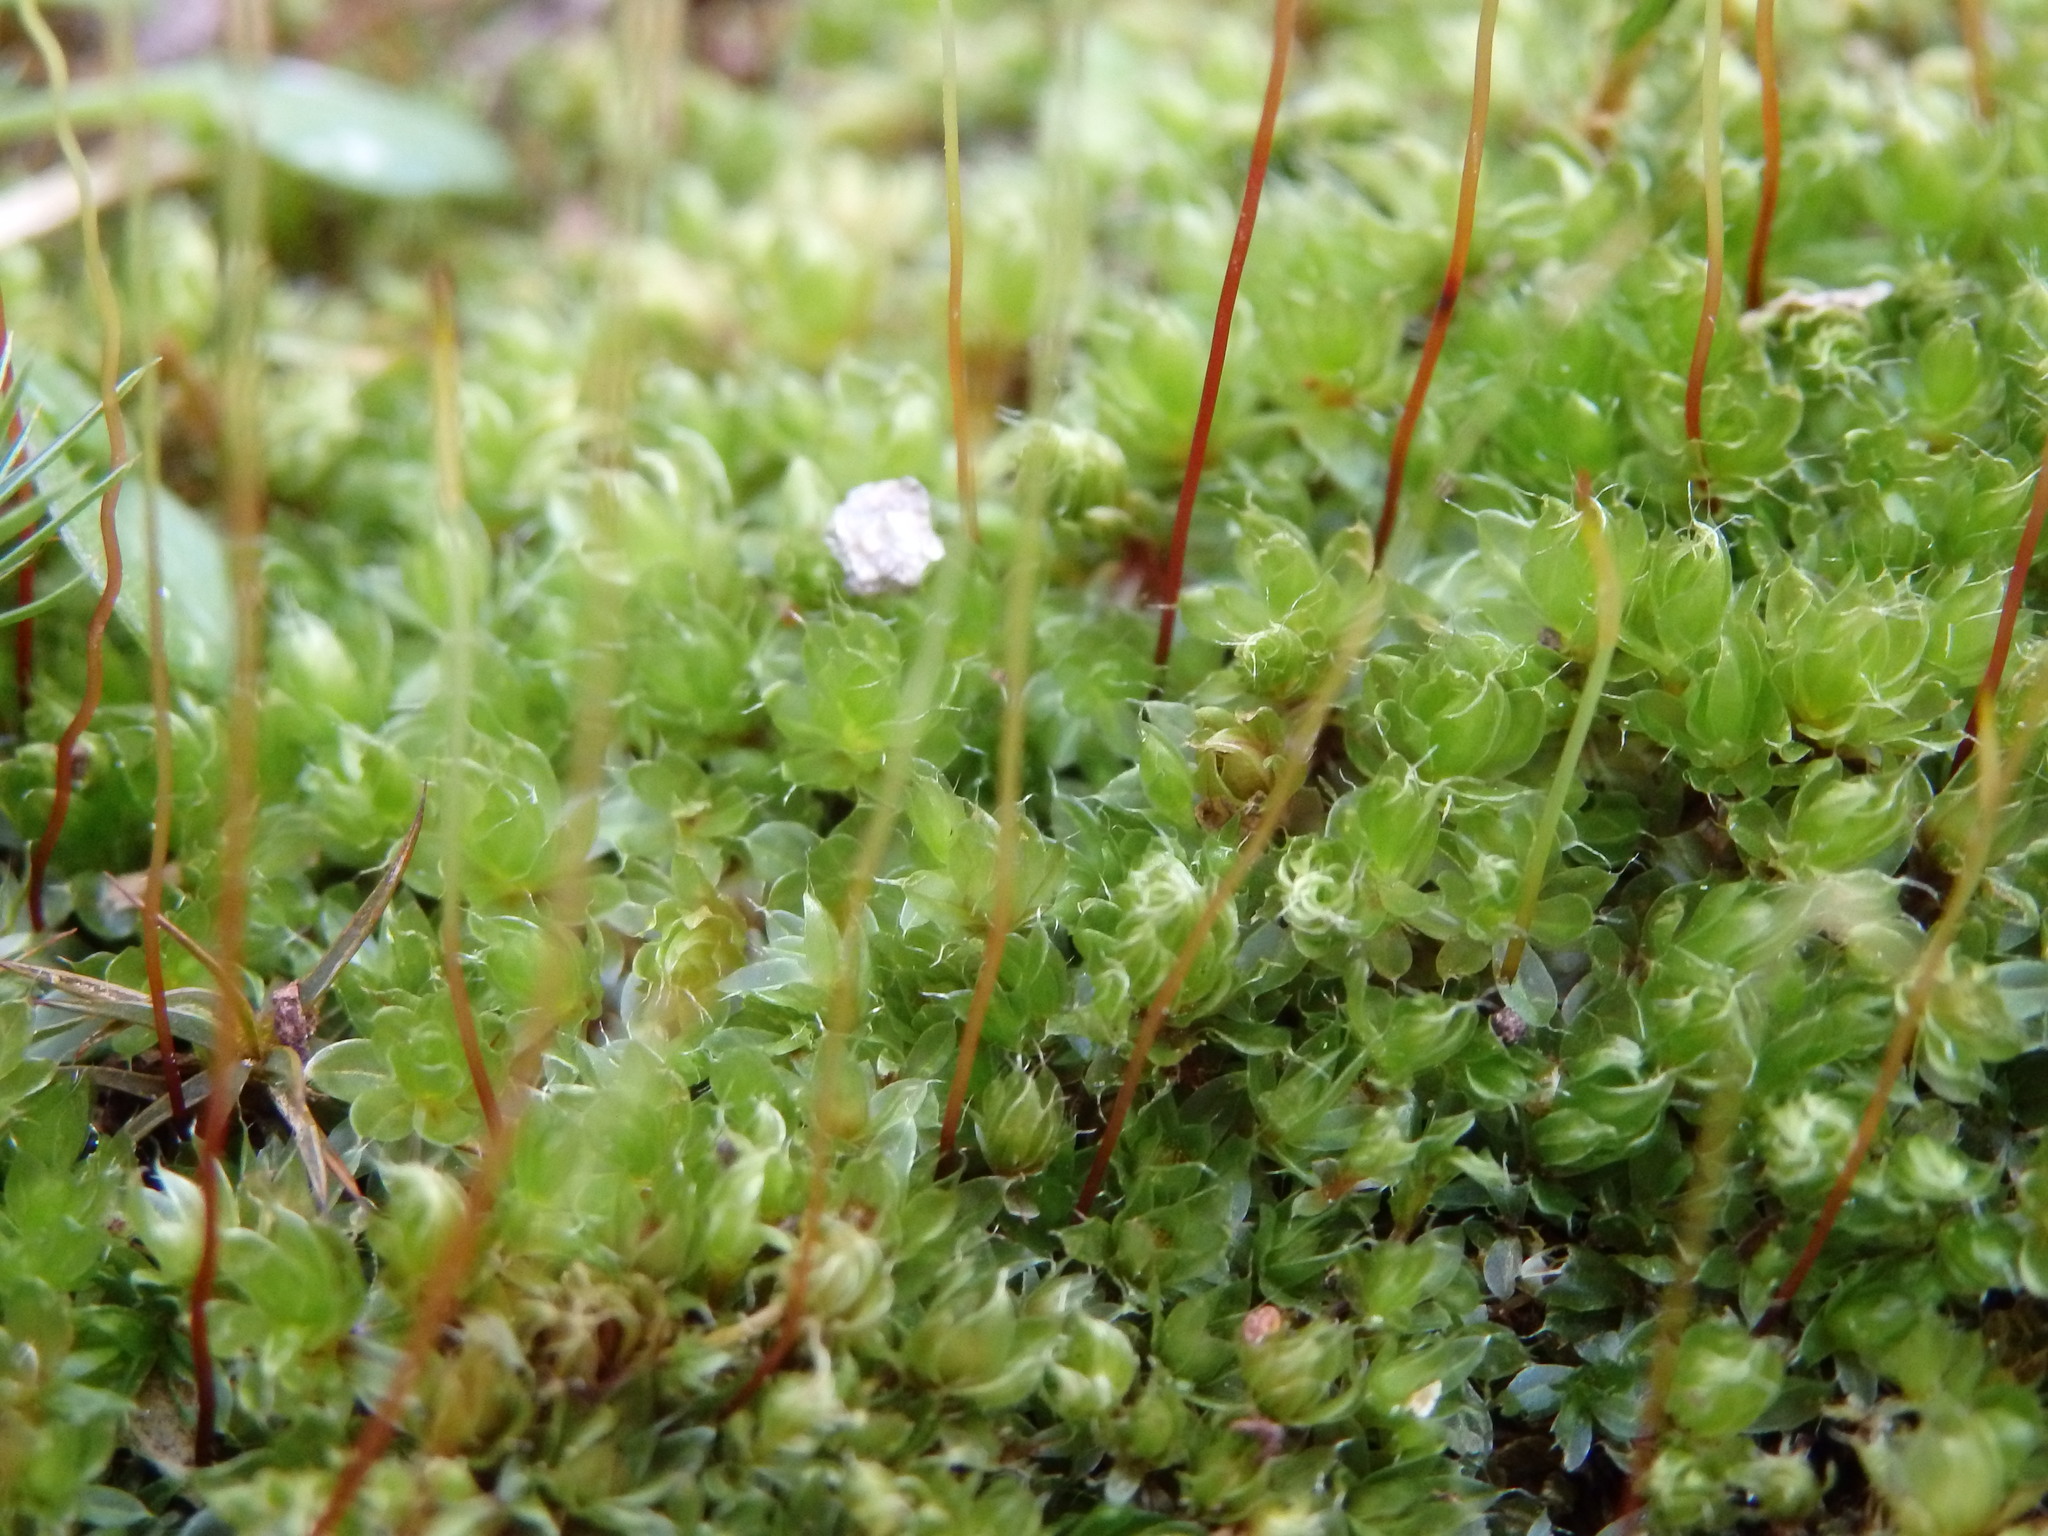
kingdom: Plantae
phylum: Bryophyta
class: Bryopsida
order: Bryales
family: Bryaceae
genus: Rosulabryum
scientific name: Rosulabryum capillare
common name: Capillary thread-moss
